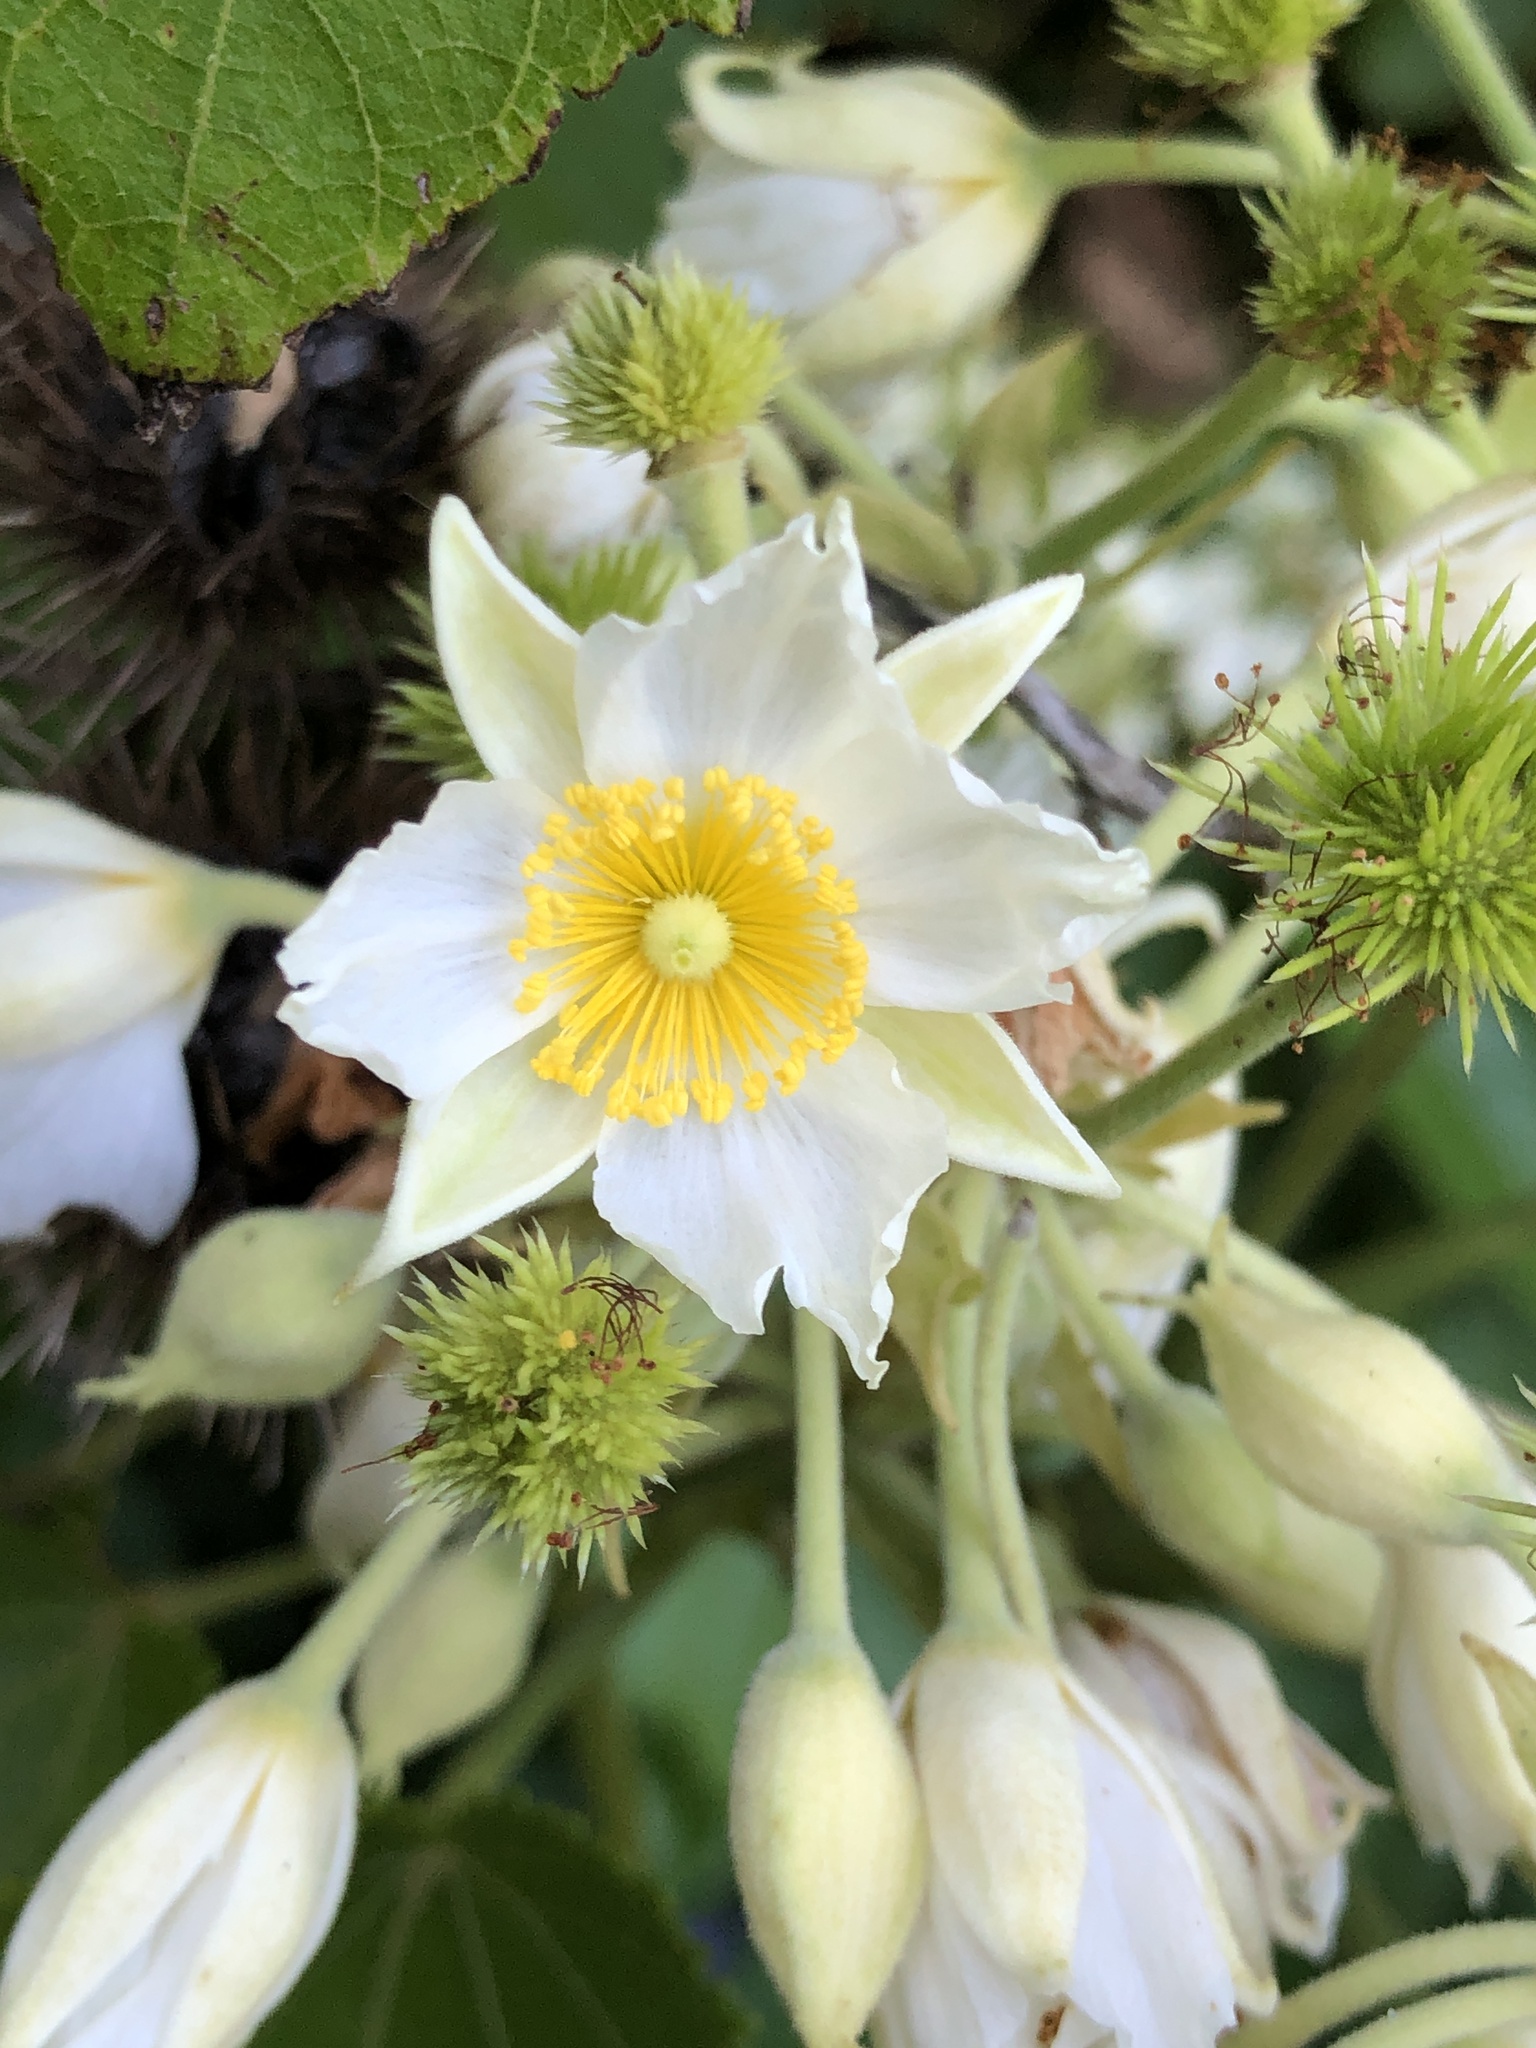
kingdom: Plantae
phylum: Tracheophyta
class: Magnoliopsida
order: Malvales
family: Malvaceae
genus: Entelea
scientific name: Entelea arborescens
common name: New zealand-mulberry
